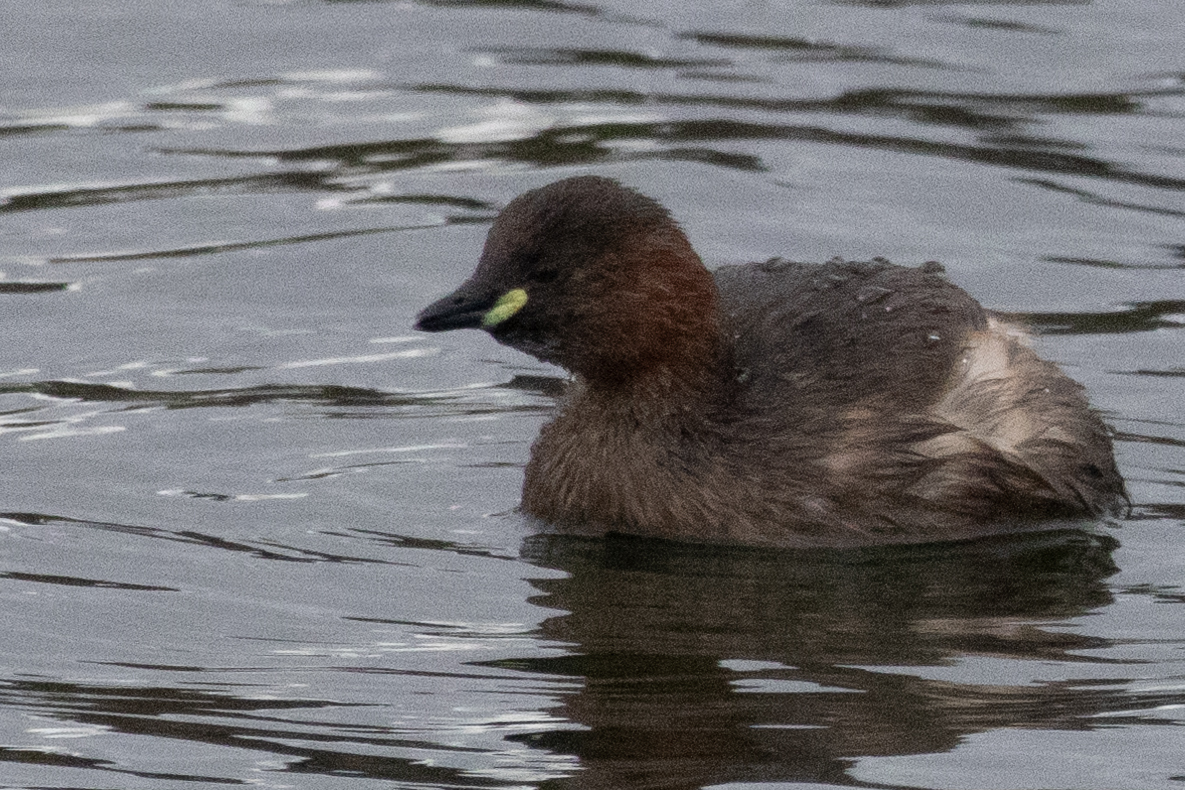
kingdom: Animalia
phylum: Chordata
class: Aves
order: Podicipediformes
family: Podicipedidae
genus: Tachybaptus
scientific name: Tachybaptus ruficollis
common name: Little grebe
